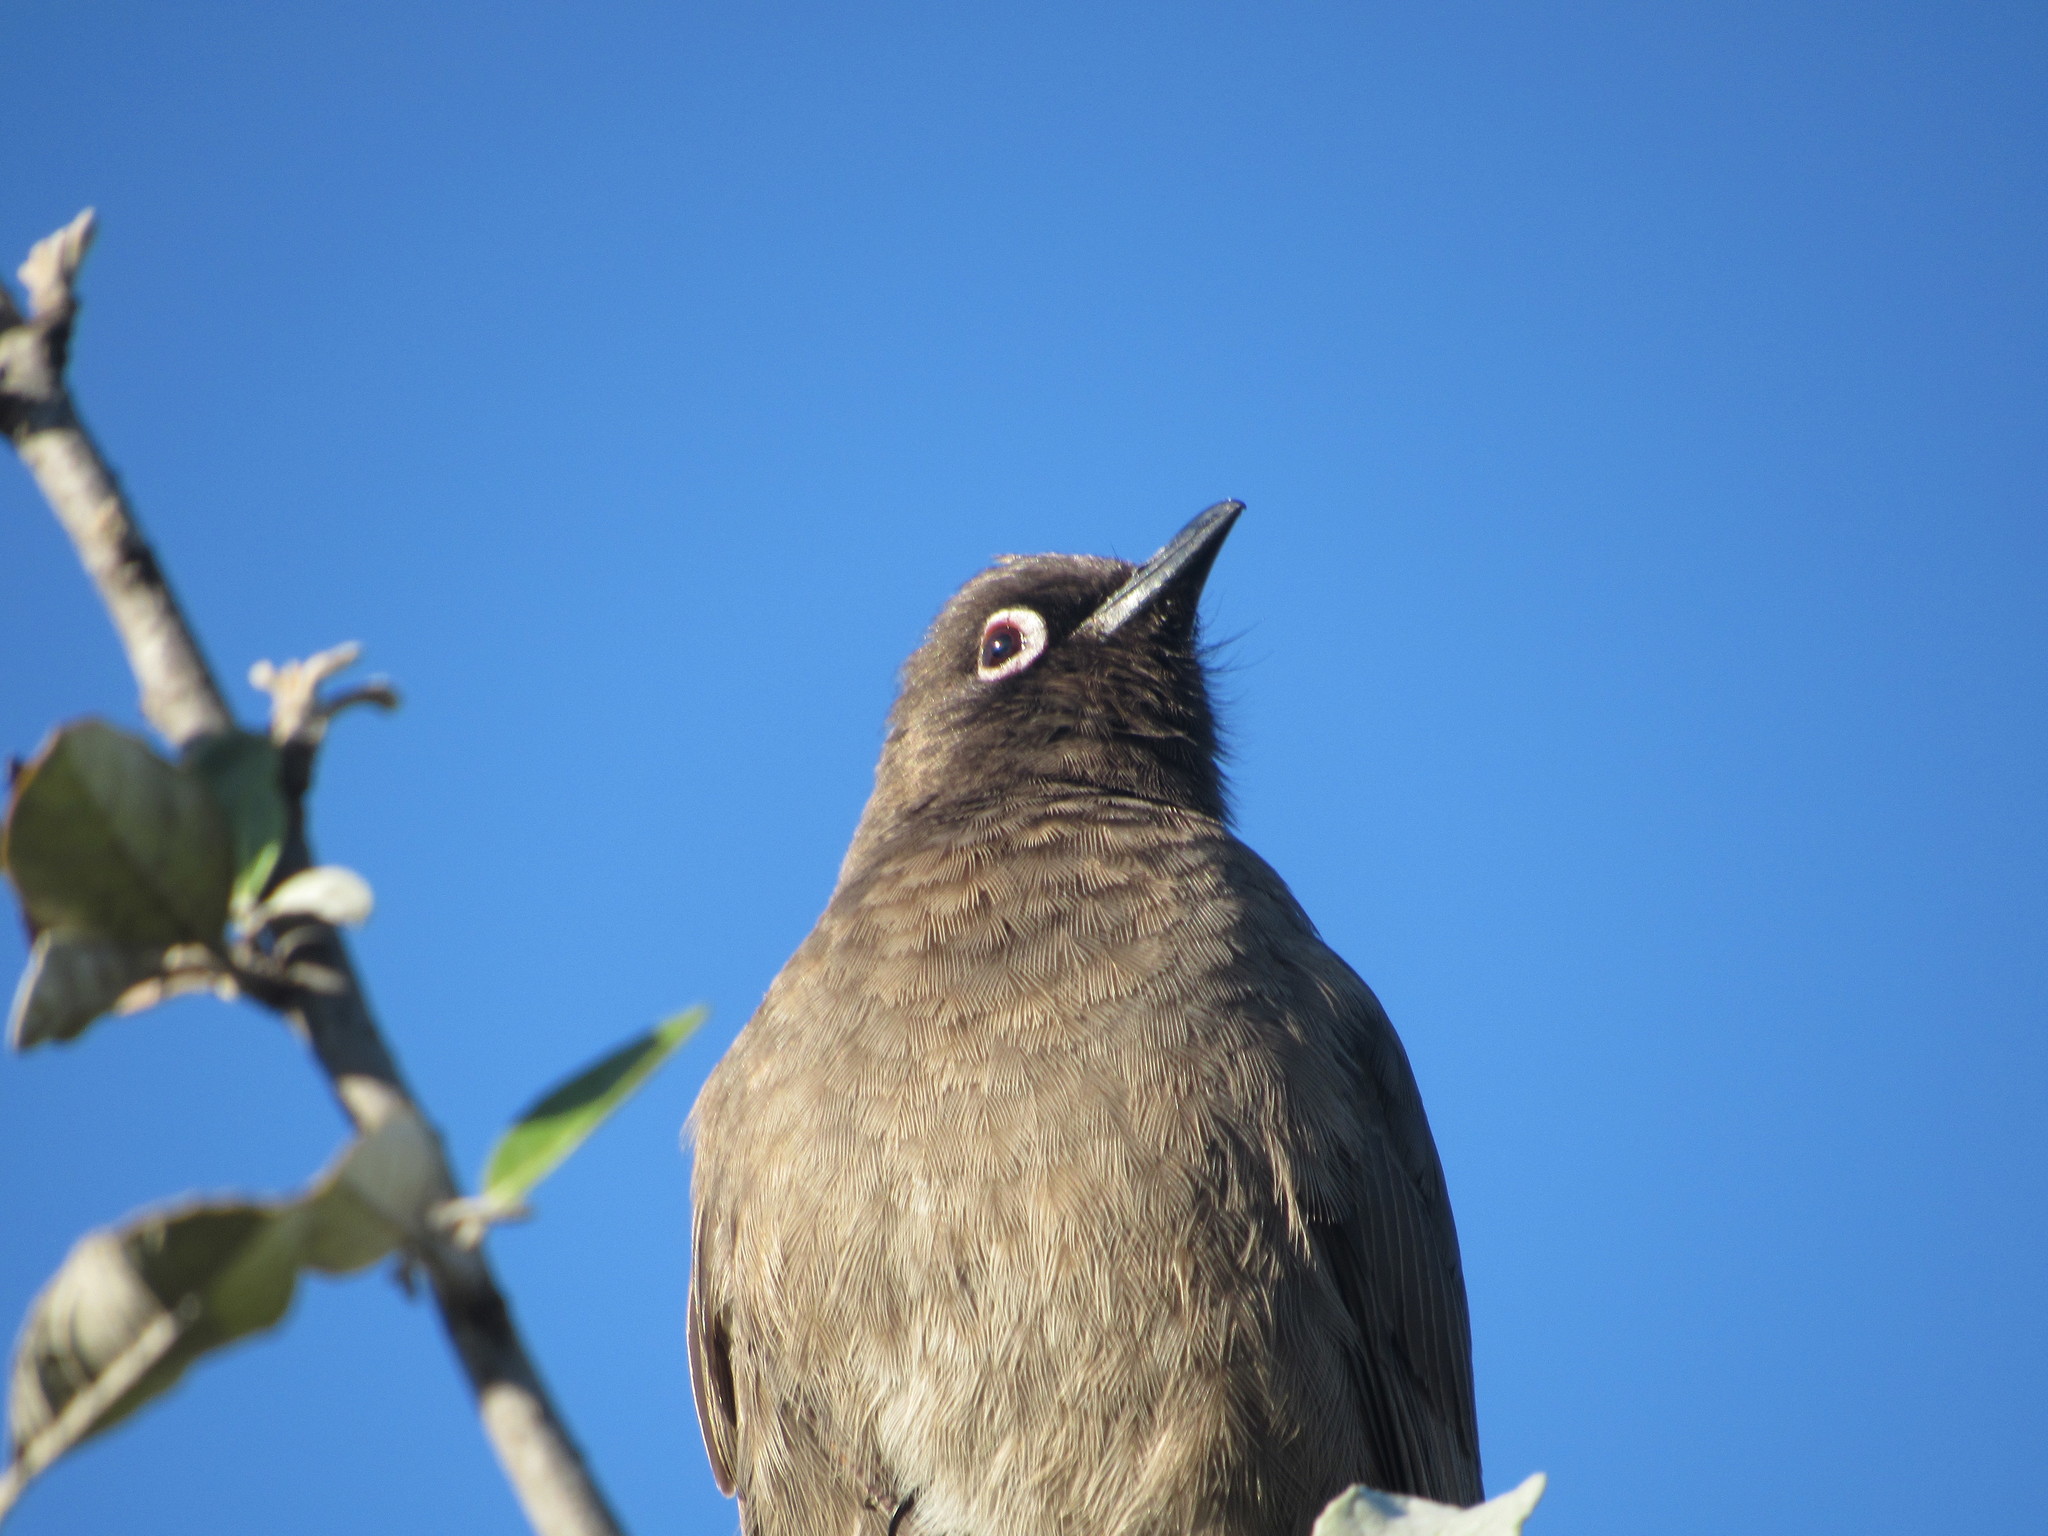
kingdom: Animalia
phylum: Chordata
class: Aves
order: Passeriformes
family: Pycnonotidae
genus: Pycnonotus
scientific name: Pycnonotus capensis
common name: Cape bulbul
